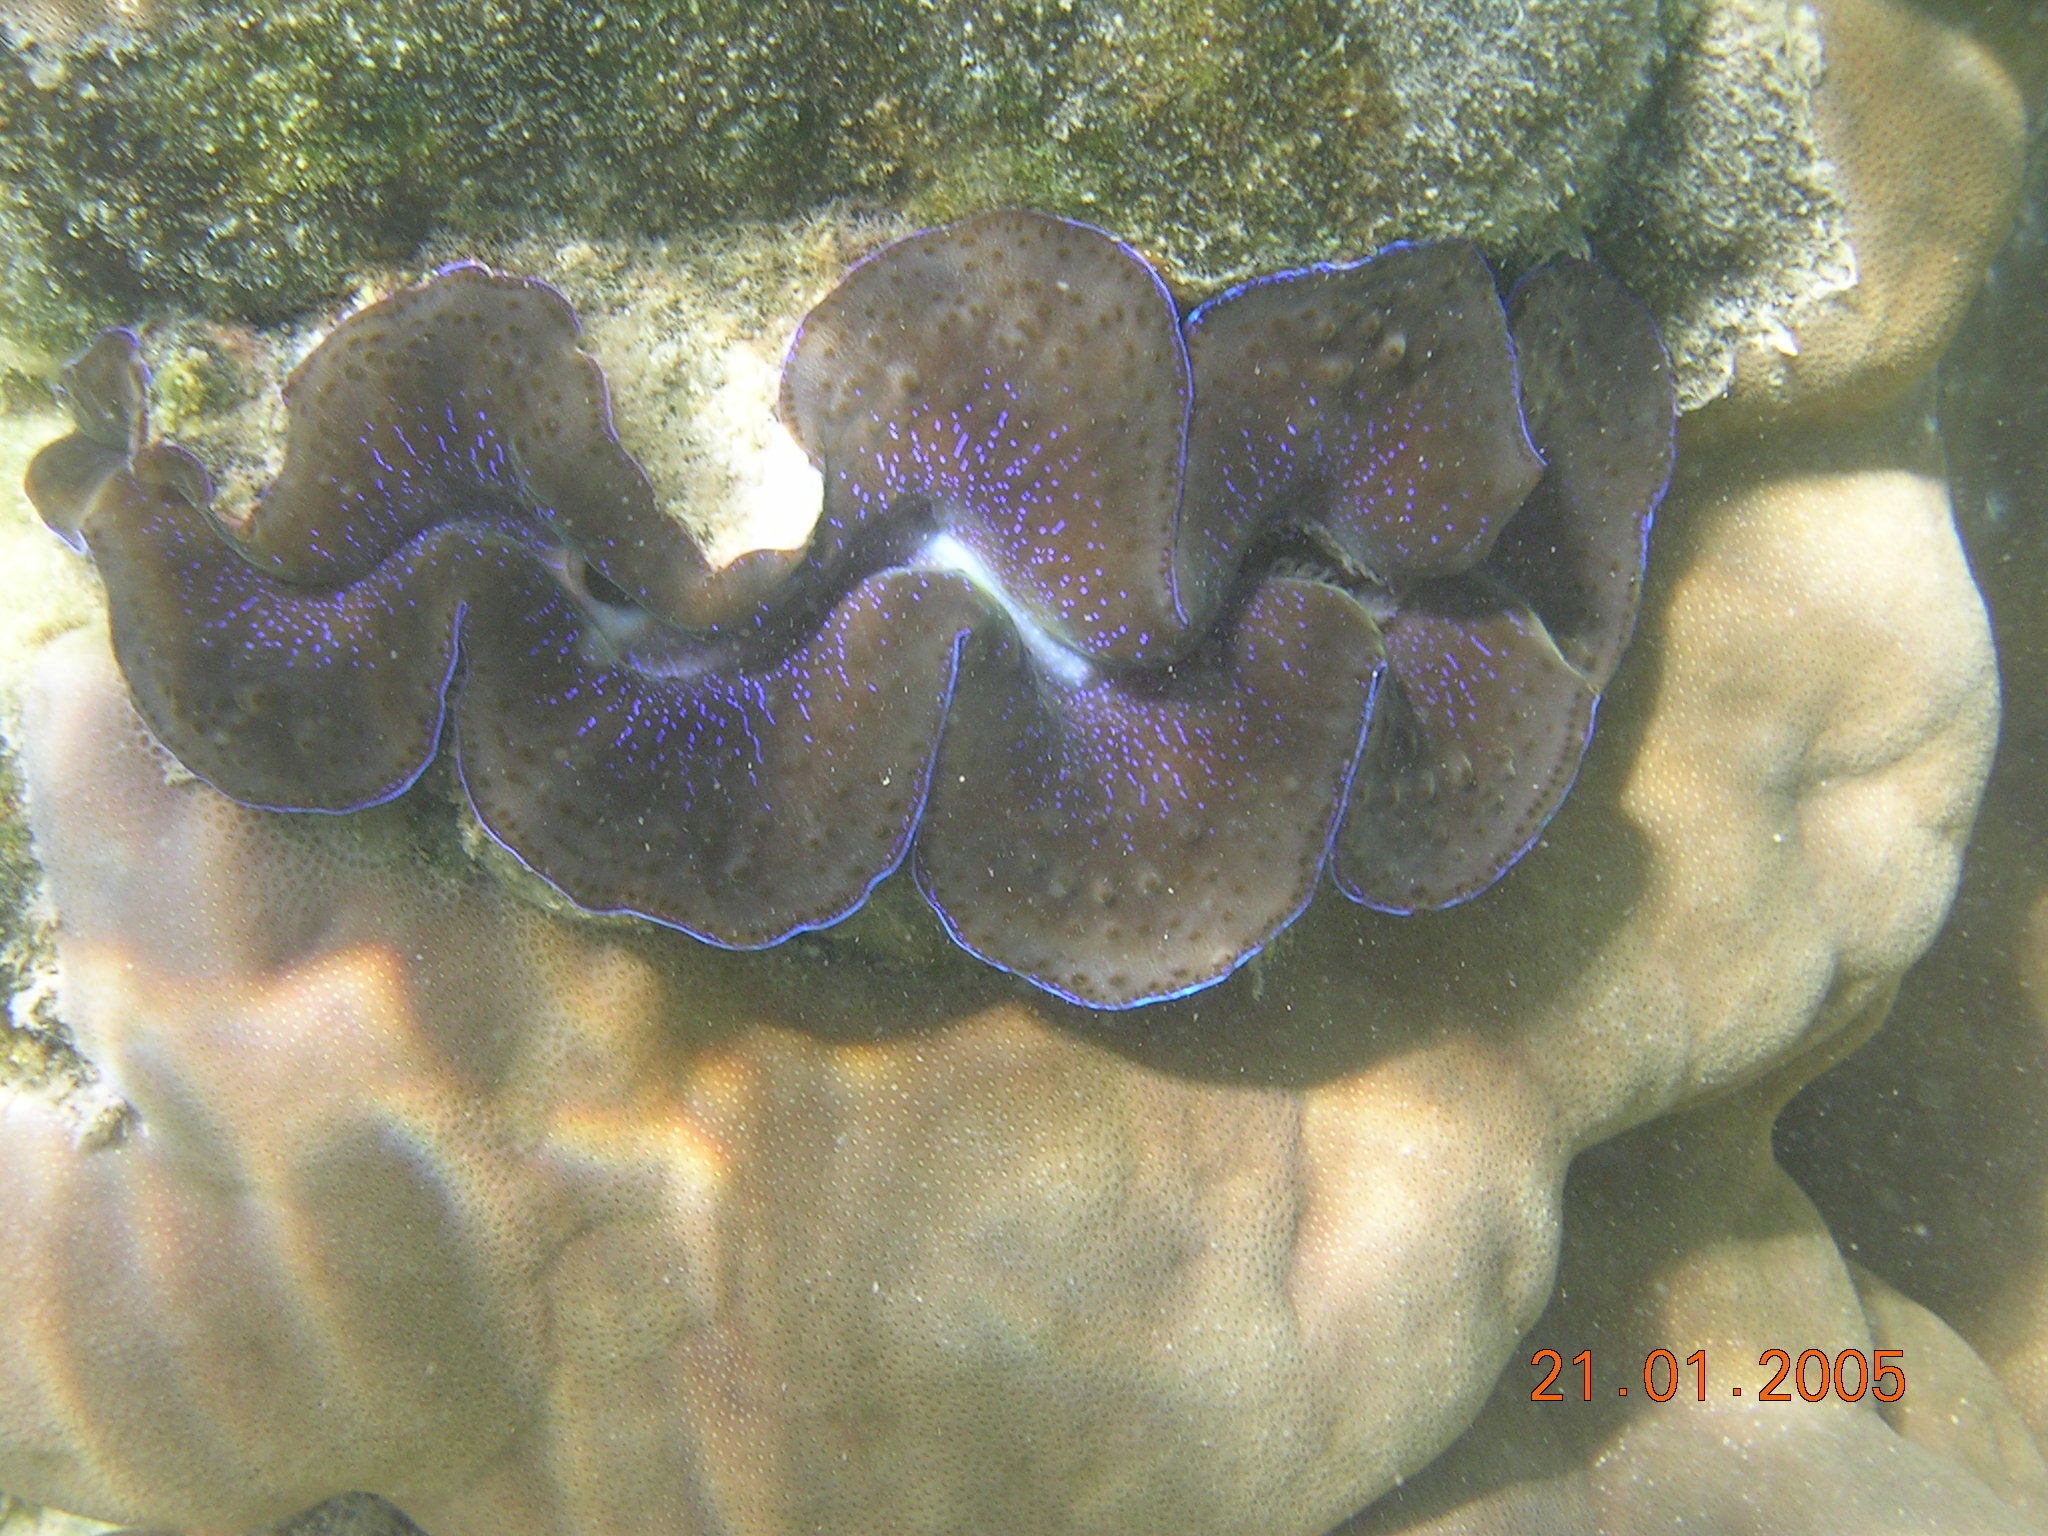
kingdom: Animalia
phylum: Mollusca
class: Bivalvia
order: Cardiida
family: Cardiidae
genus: Tridacna
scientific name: Tridacna maxima
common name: Small giant clam
